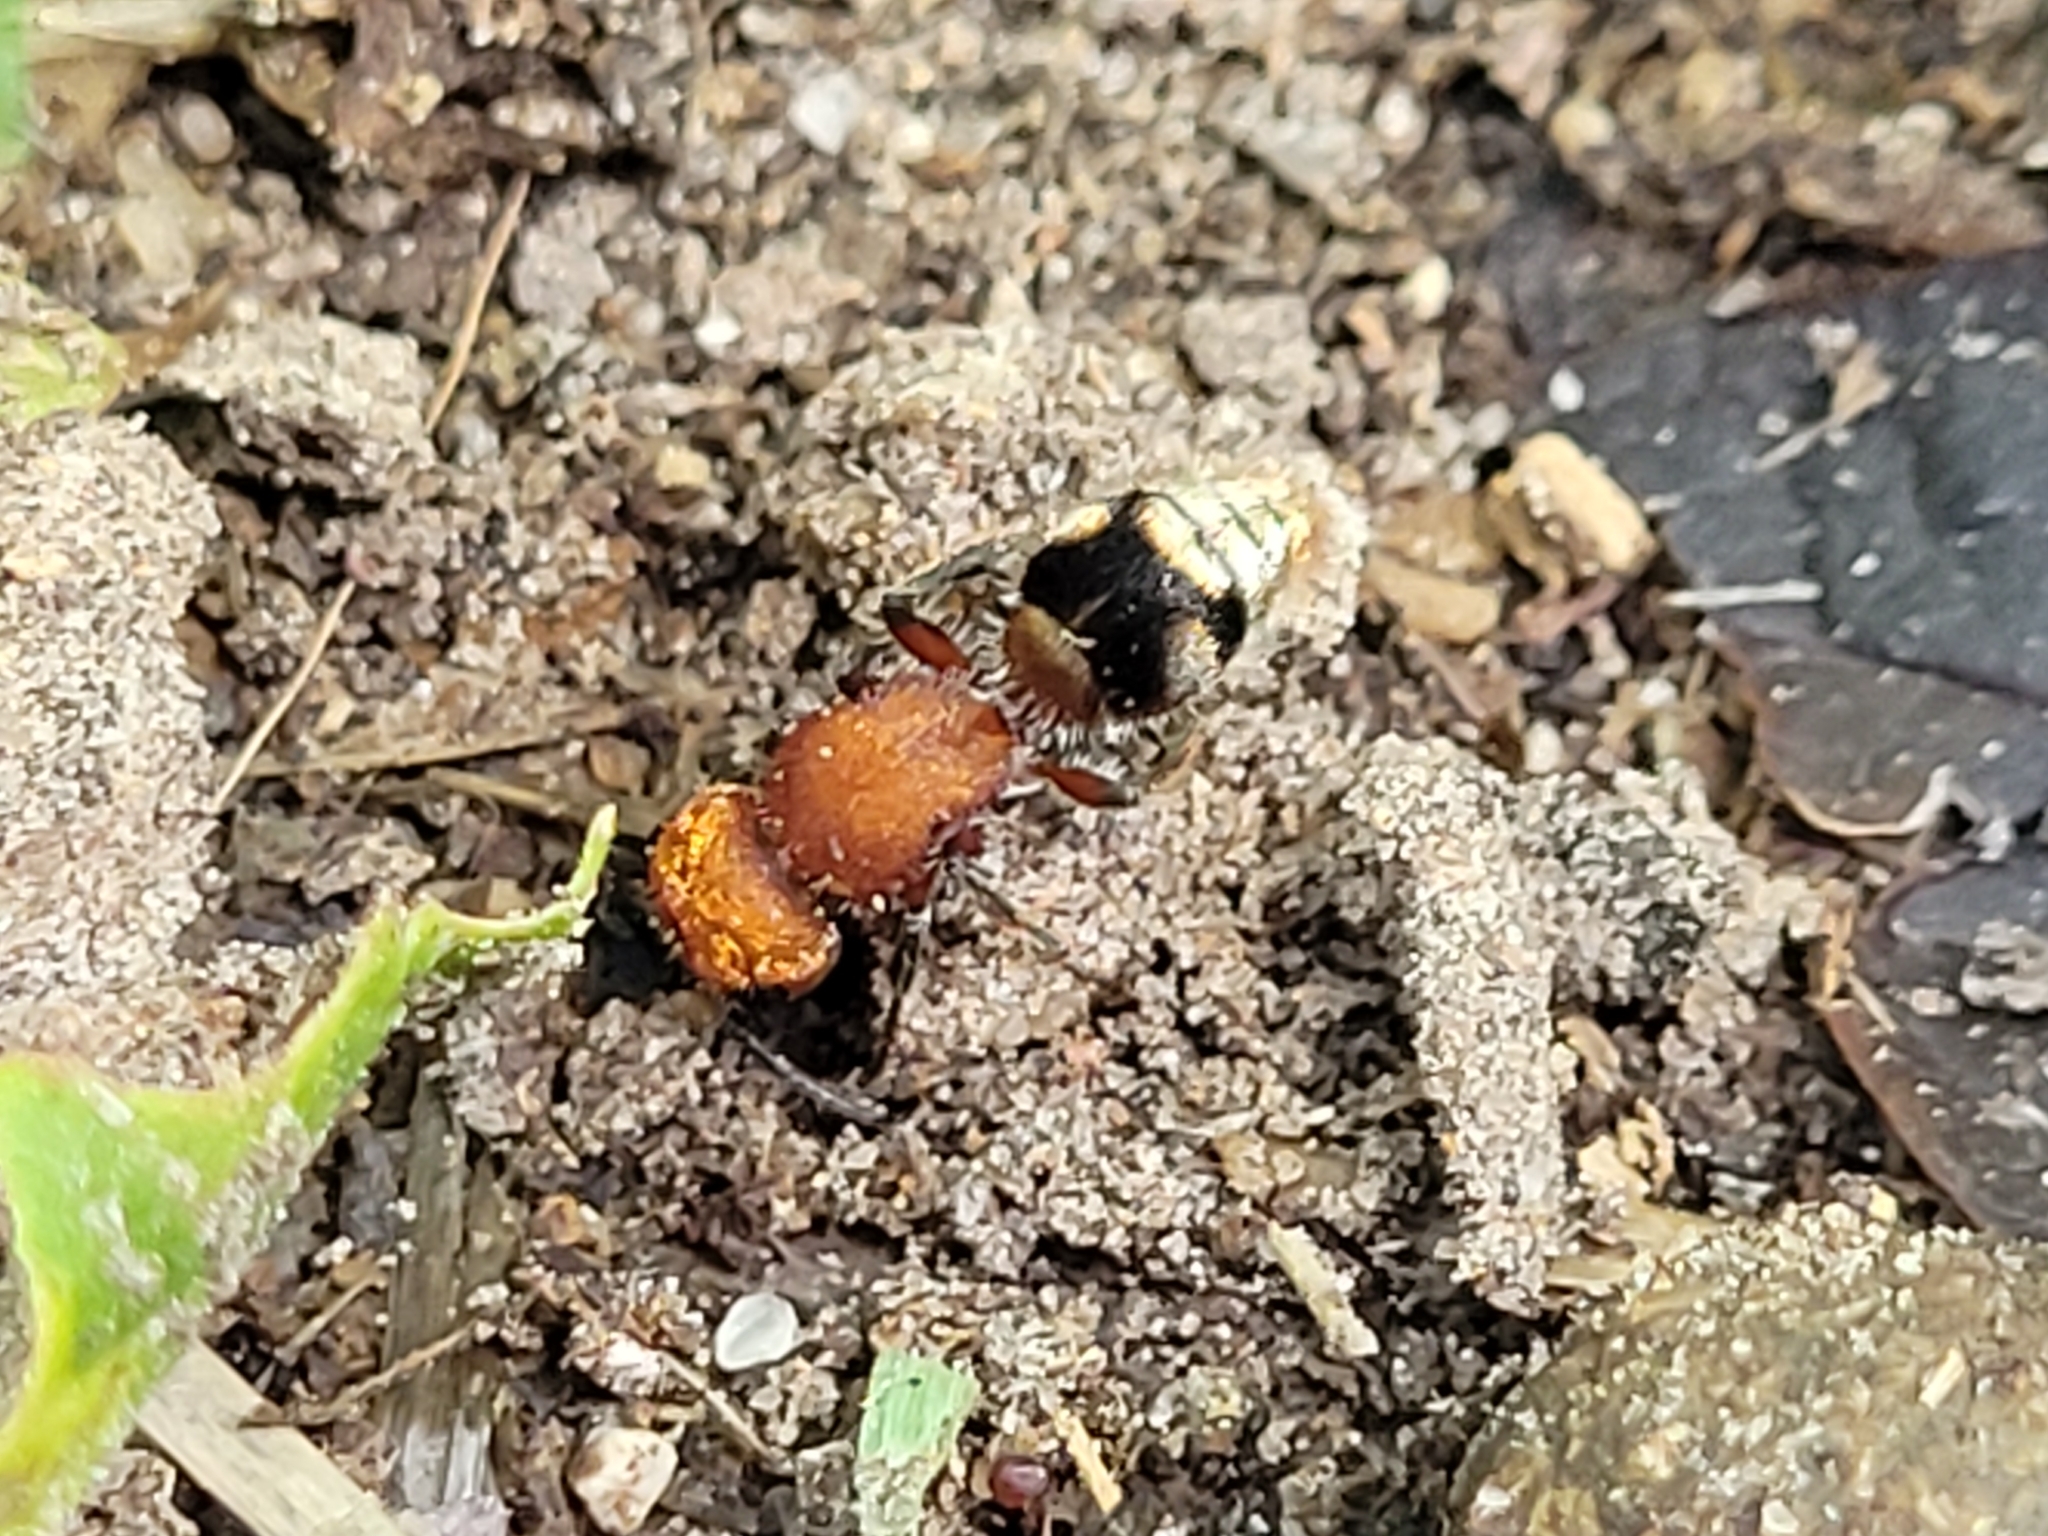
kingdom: Animalia
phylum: Arthropoda
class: Insecta
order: Hymenoptera
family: Mutillidae
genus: Pseudomethoca
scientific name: Pseudomethoca wickhami
